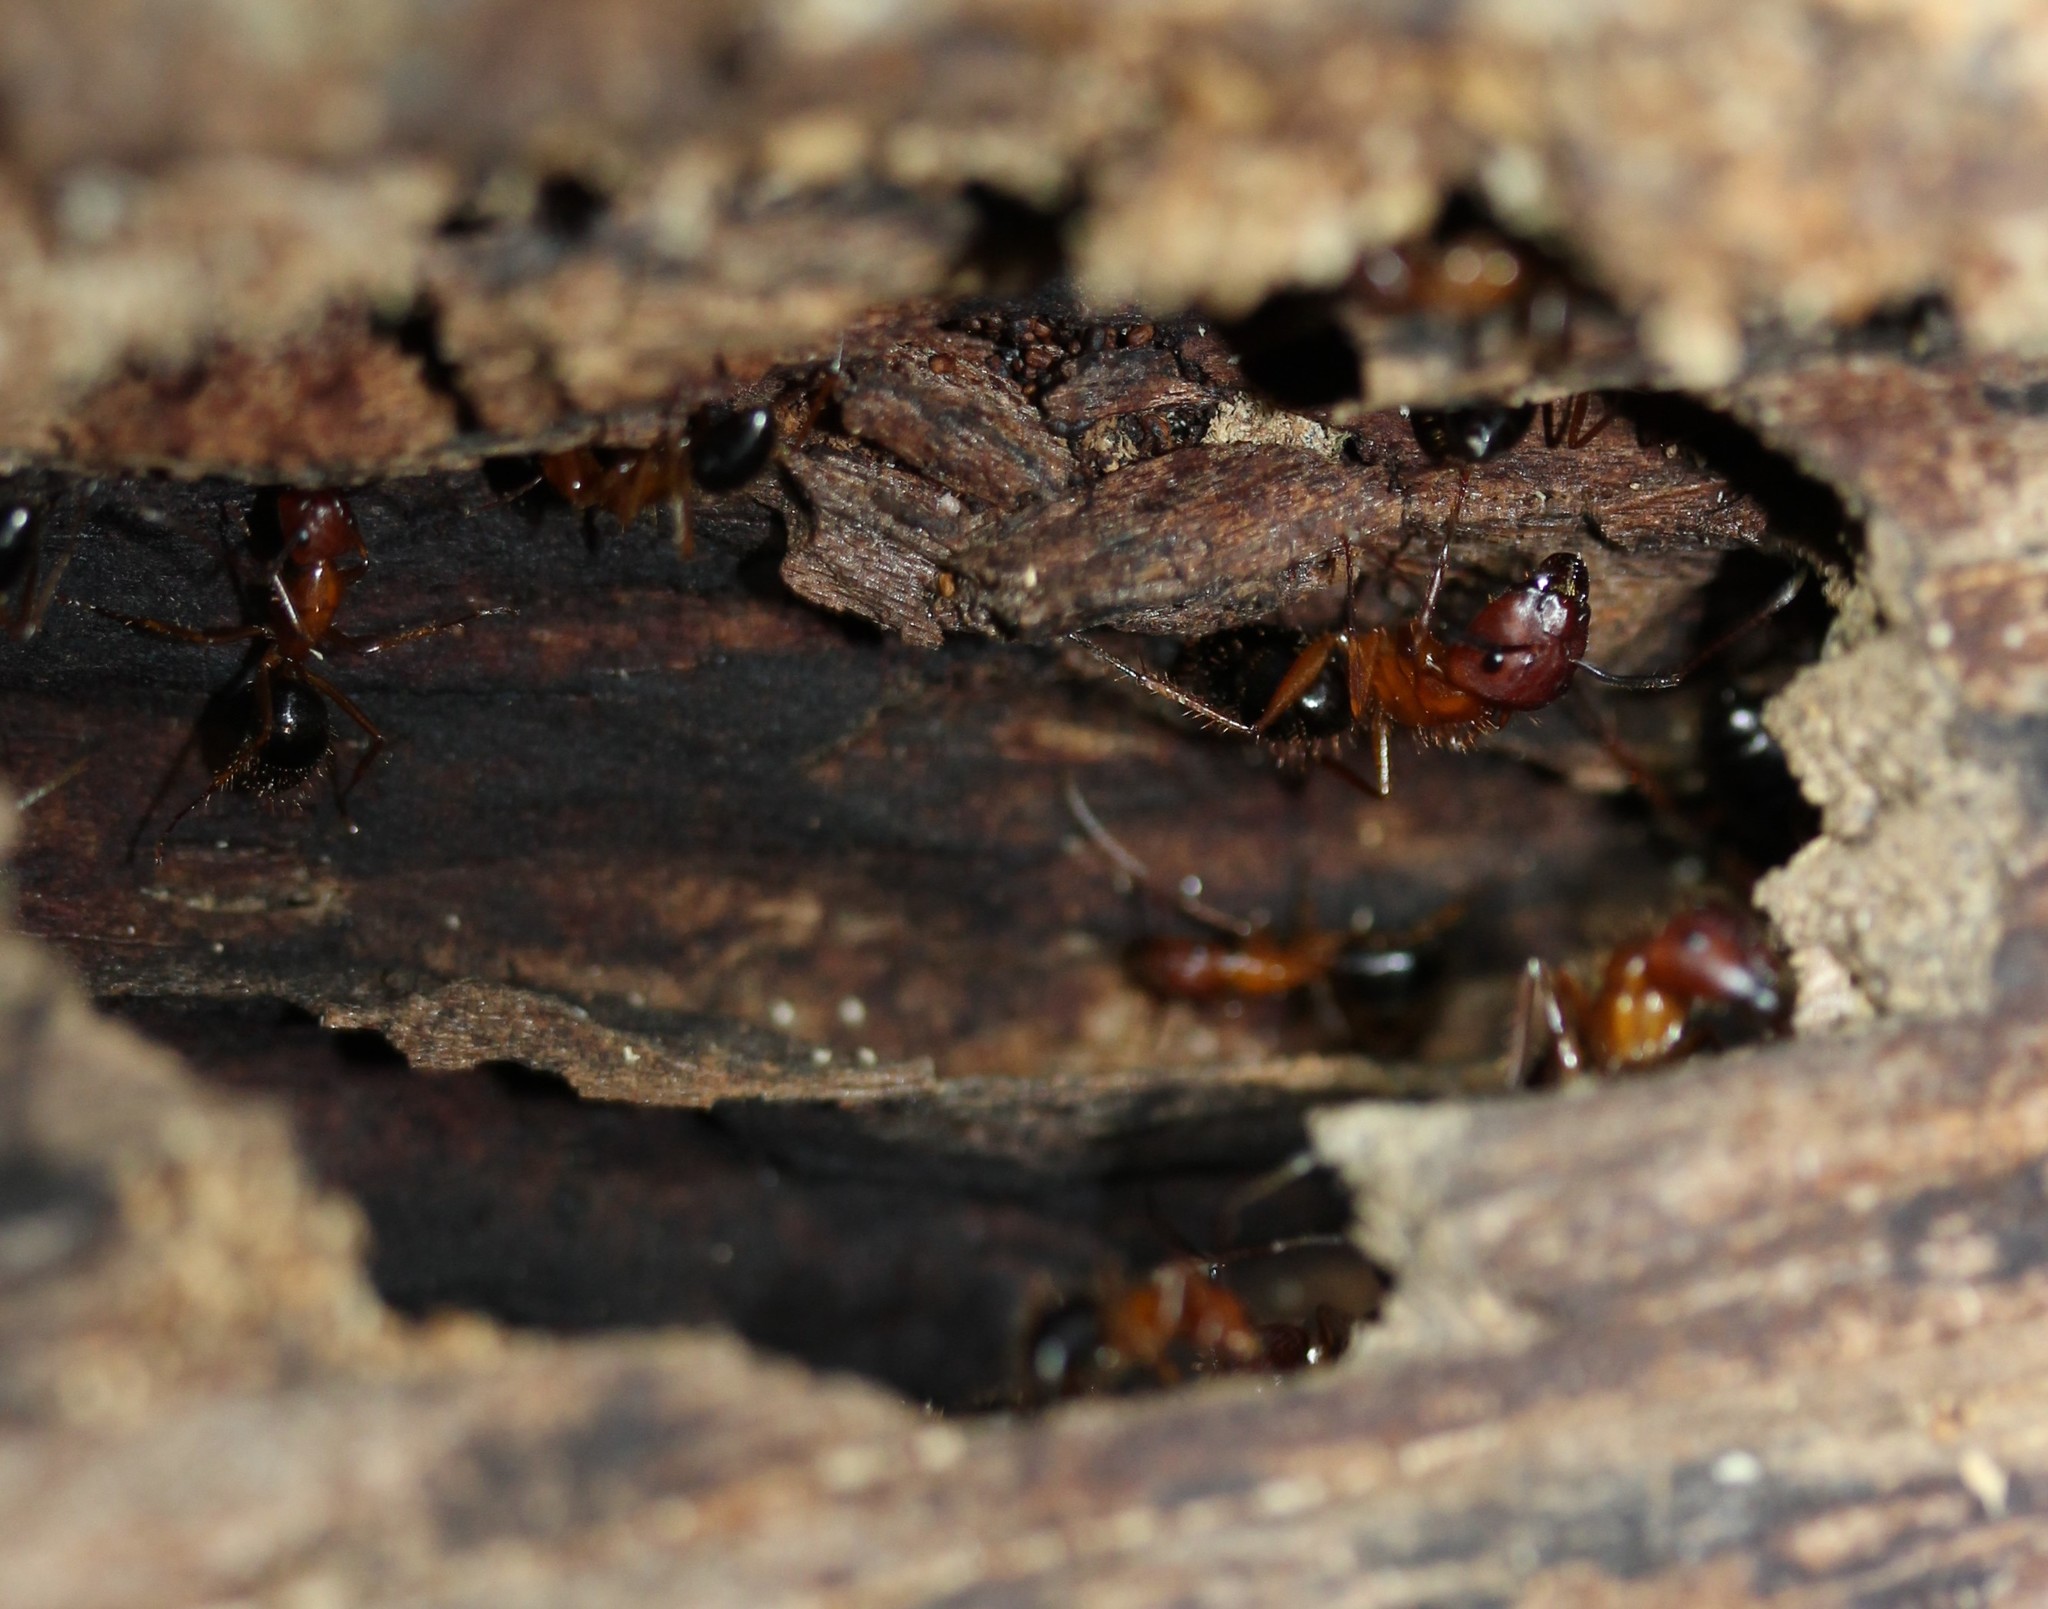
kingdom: Animalia
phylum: Arthropoda
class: Insecta
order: Hymenoptera
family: Formicidae
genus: Camponotus
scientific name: Camponotus floridanus
